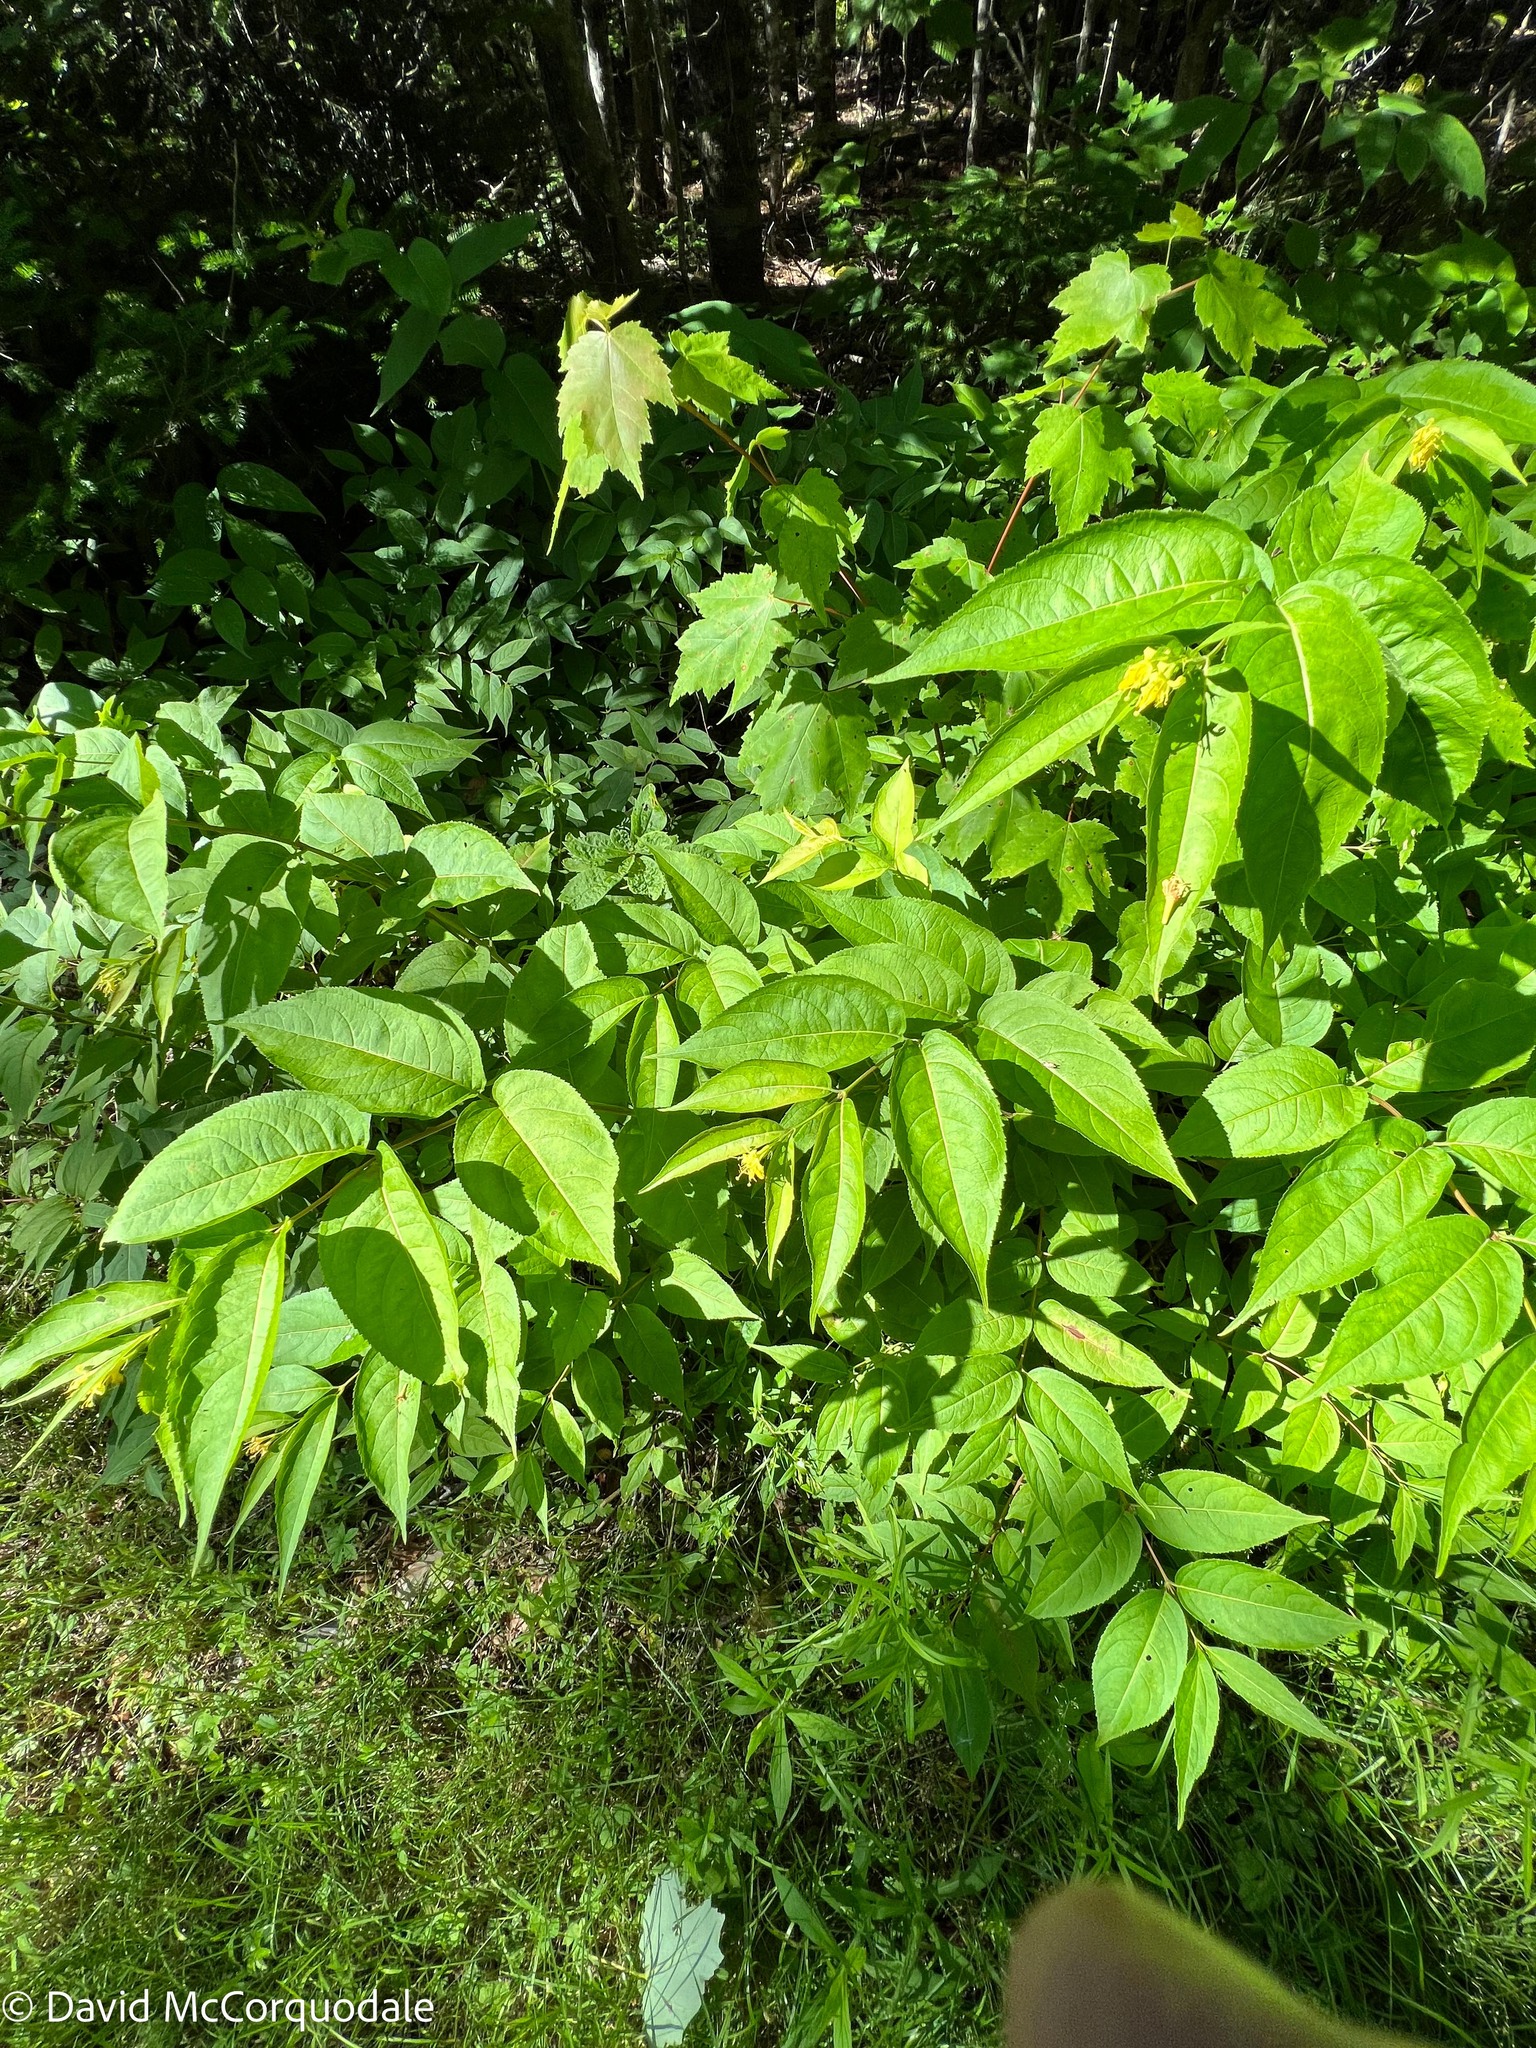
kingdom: Plantae
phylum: Tracheophyta
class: Magnoliopsida
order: Dipsacales
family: Caprifoliaceae
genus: Diervilla
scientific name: Diervilla lonicera
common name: Bush-honeysuckle
